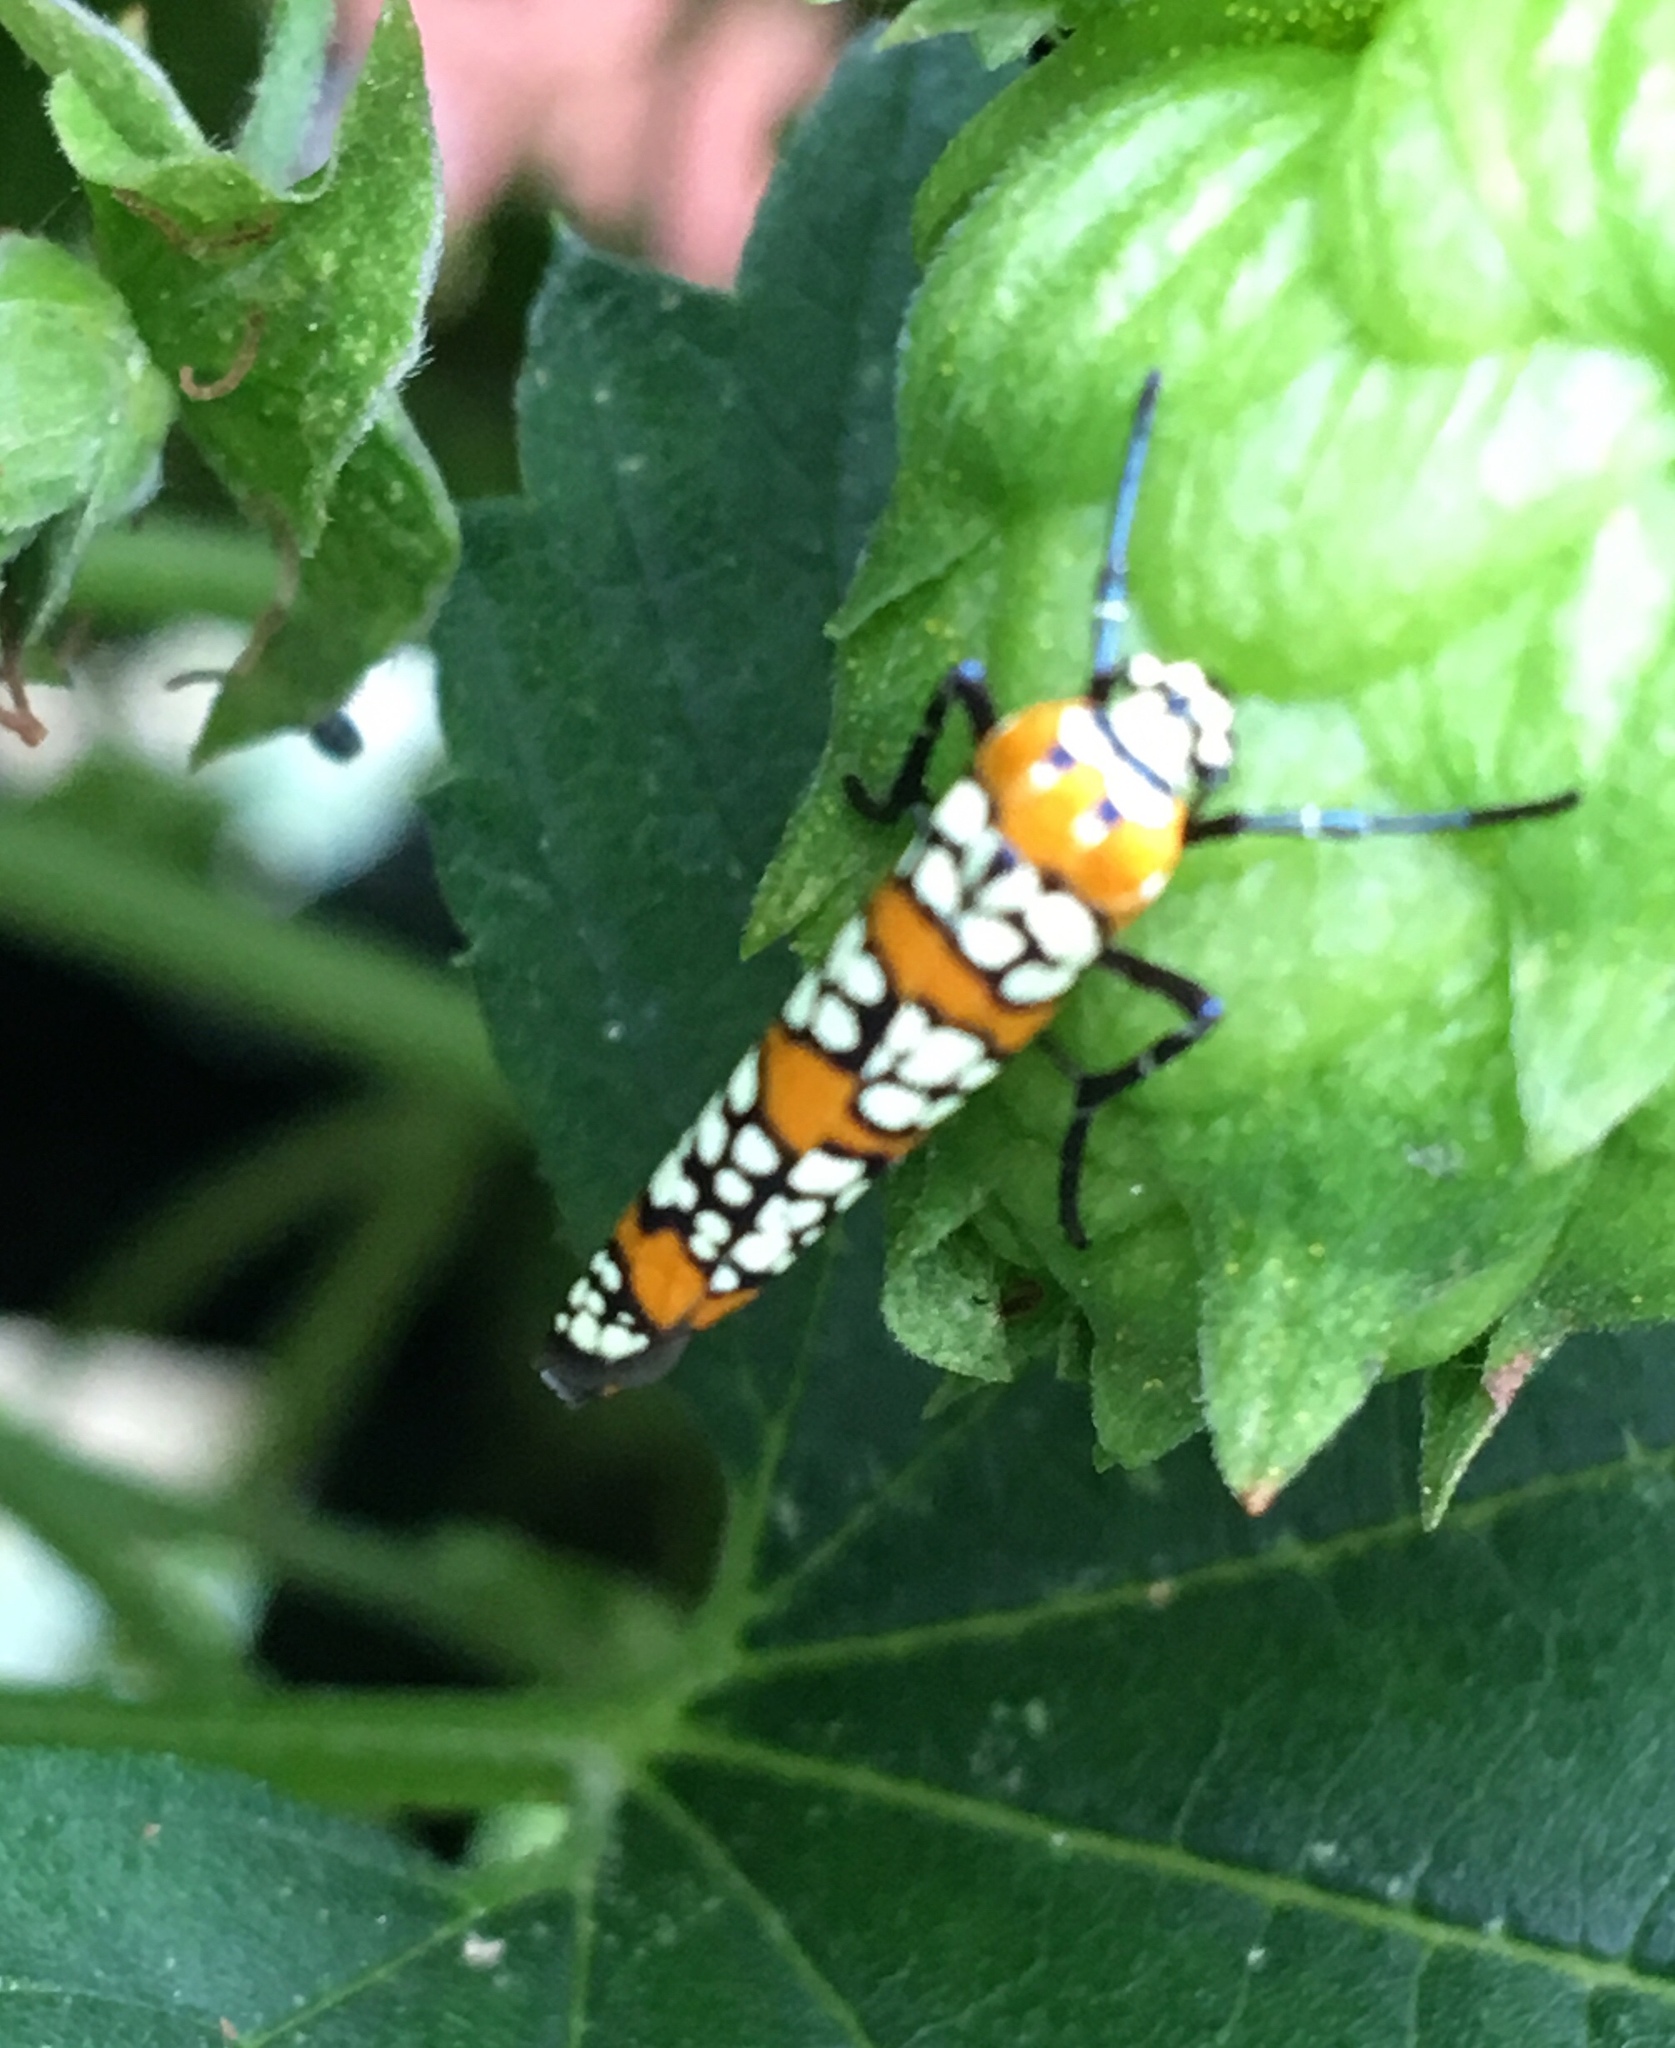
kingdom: Animalia
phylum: Arthropoda
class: Insecta
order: Lepidoptera
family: Attevidae
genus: Atteva
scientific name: Atteva punctella
